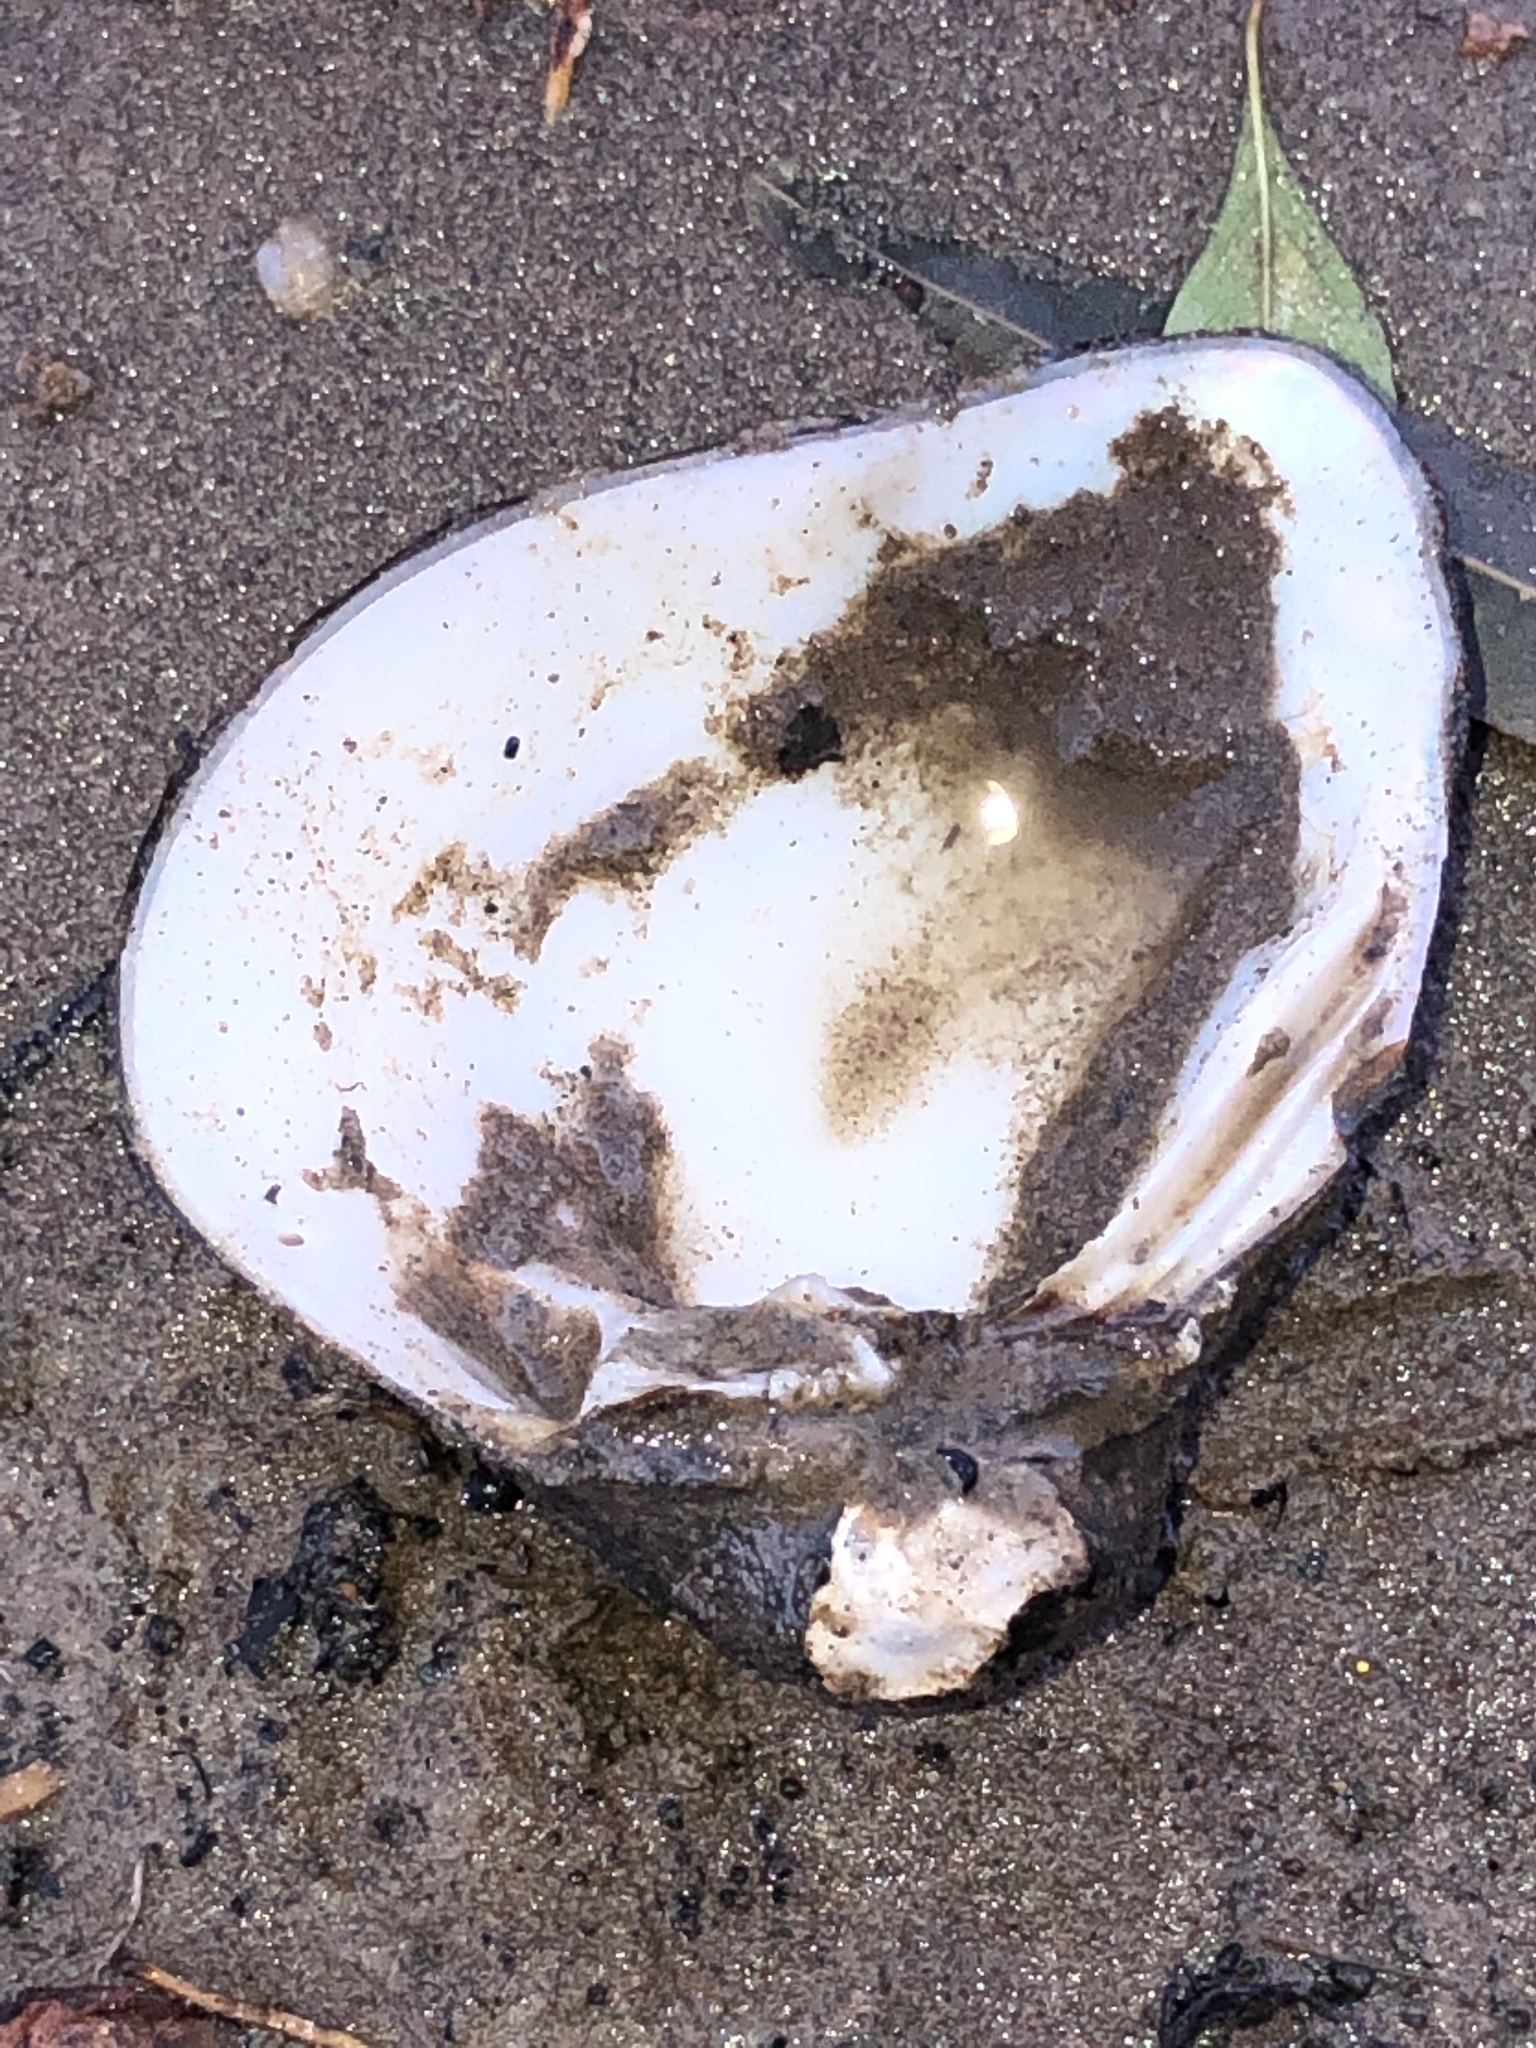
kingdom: Animalia
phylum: Mollusca
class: Bivalvia
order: Unionida
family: Unionidae
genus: Fusconaia
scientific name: Fusconaia flava
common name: Wabash pigtoe
